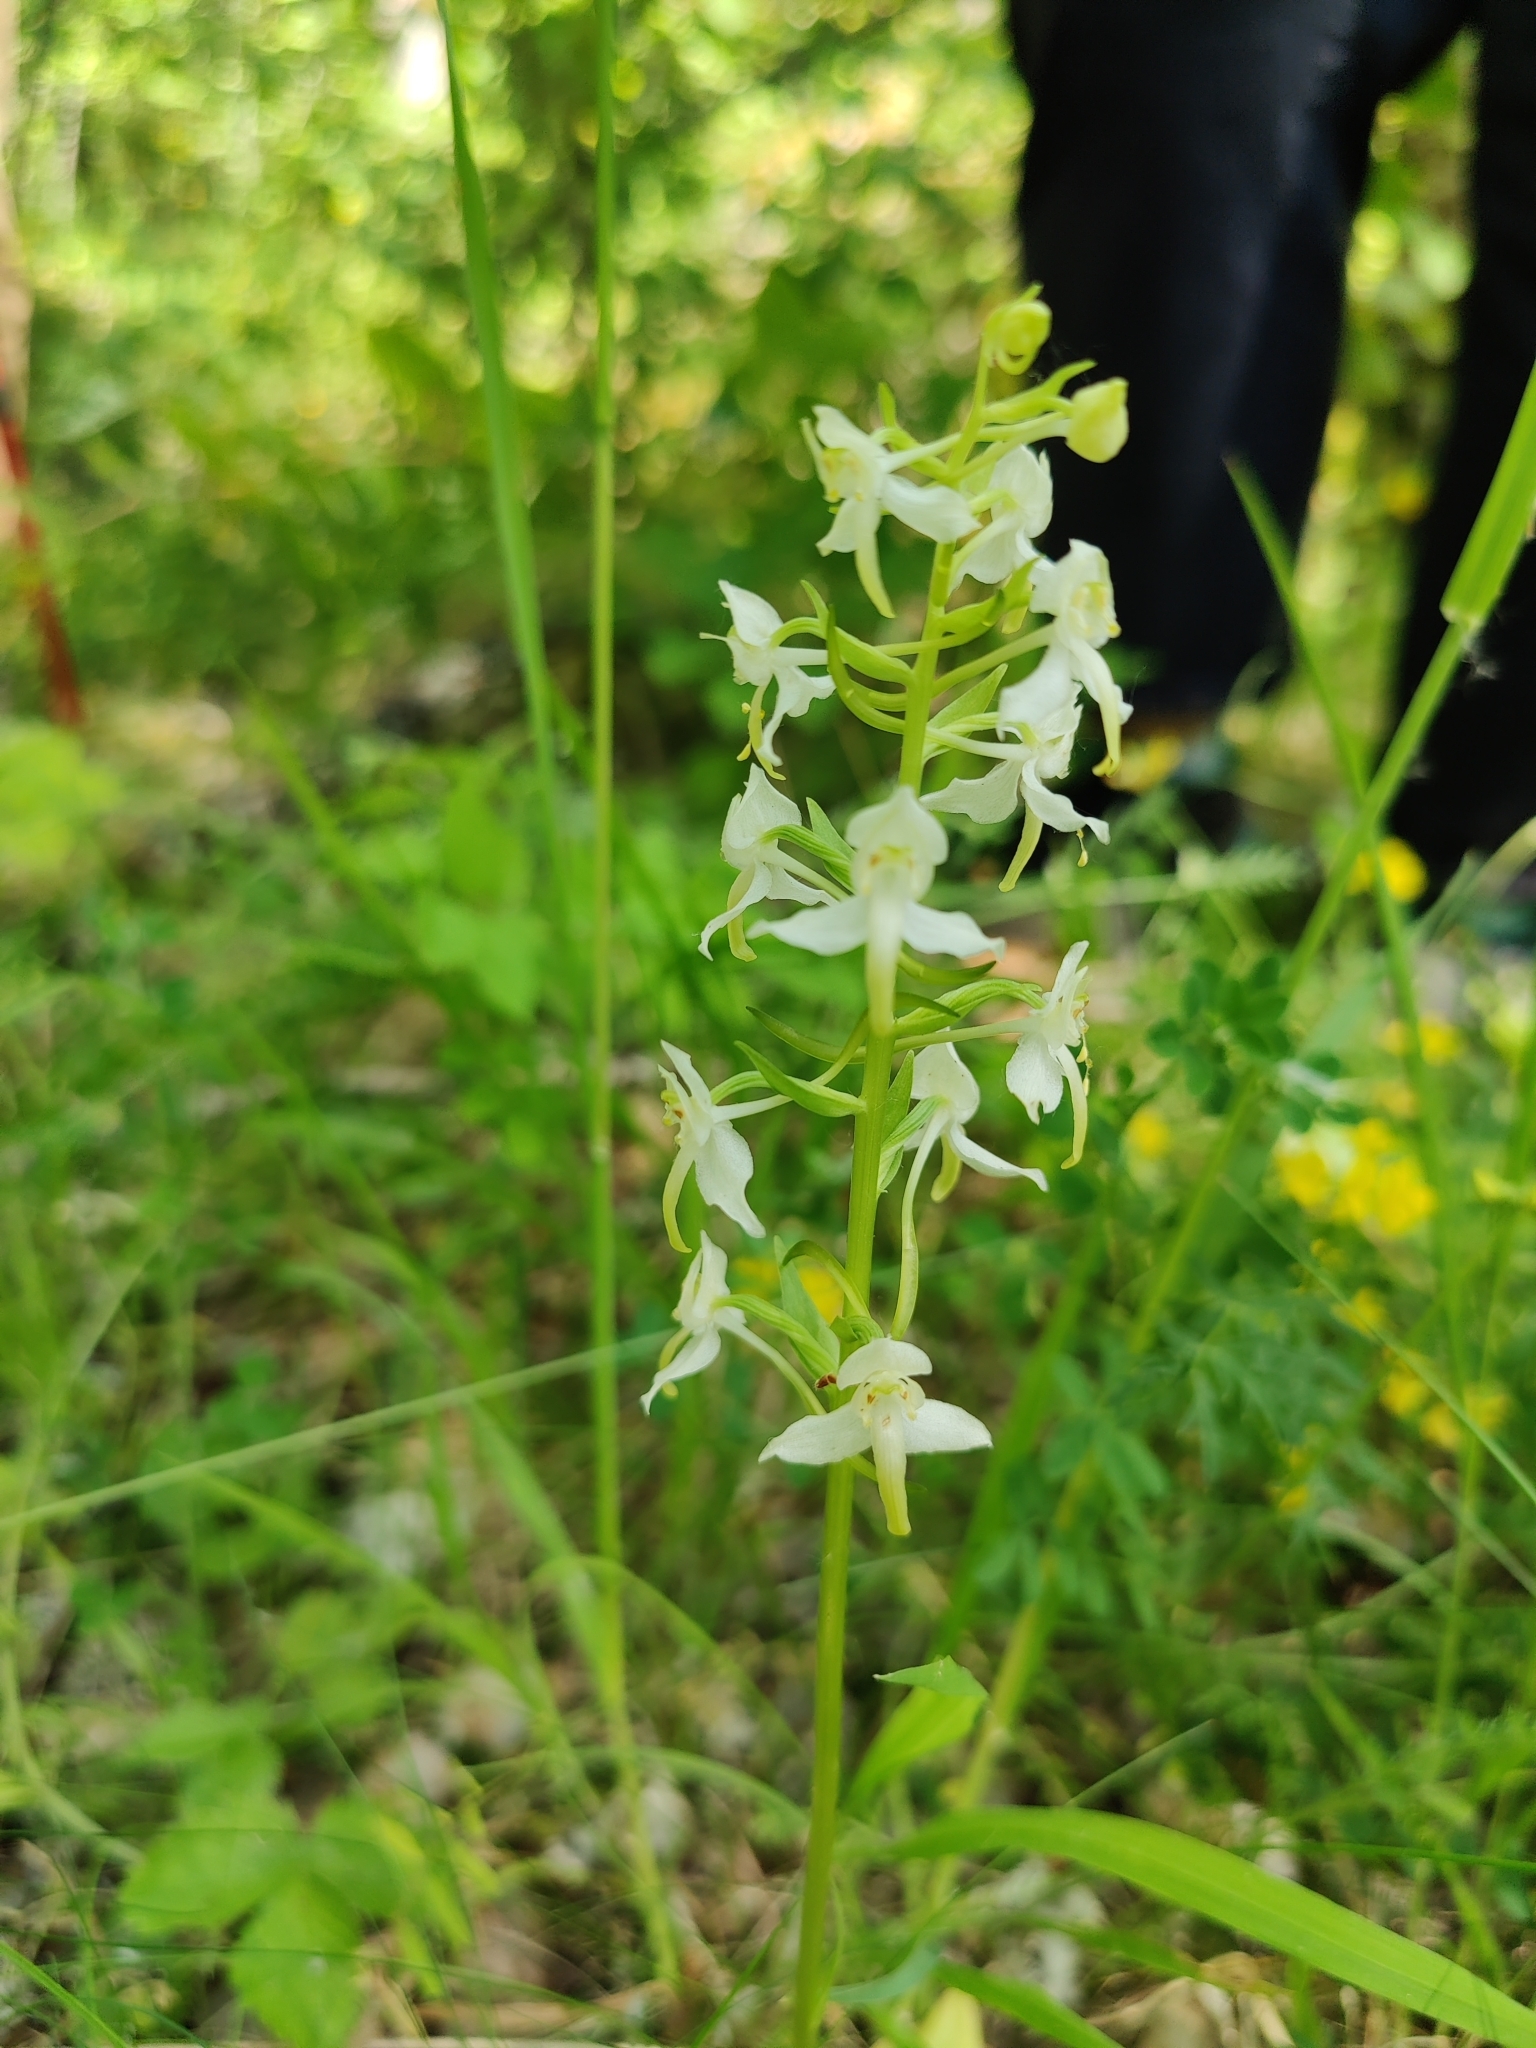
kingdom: Plantae
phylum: Tracheophyta
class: Liliopsida
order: Asparagales
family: Orchidaceae
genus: Platanthera
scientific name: Platanthera chlorantha
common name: Greater butterfly-orchid
